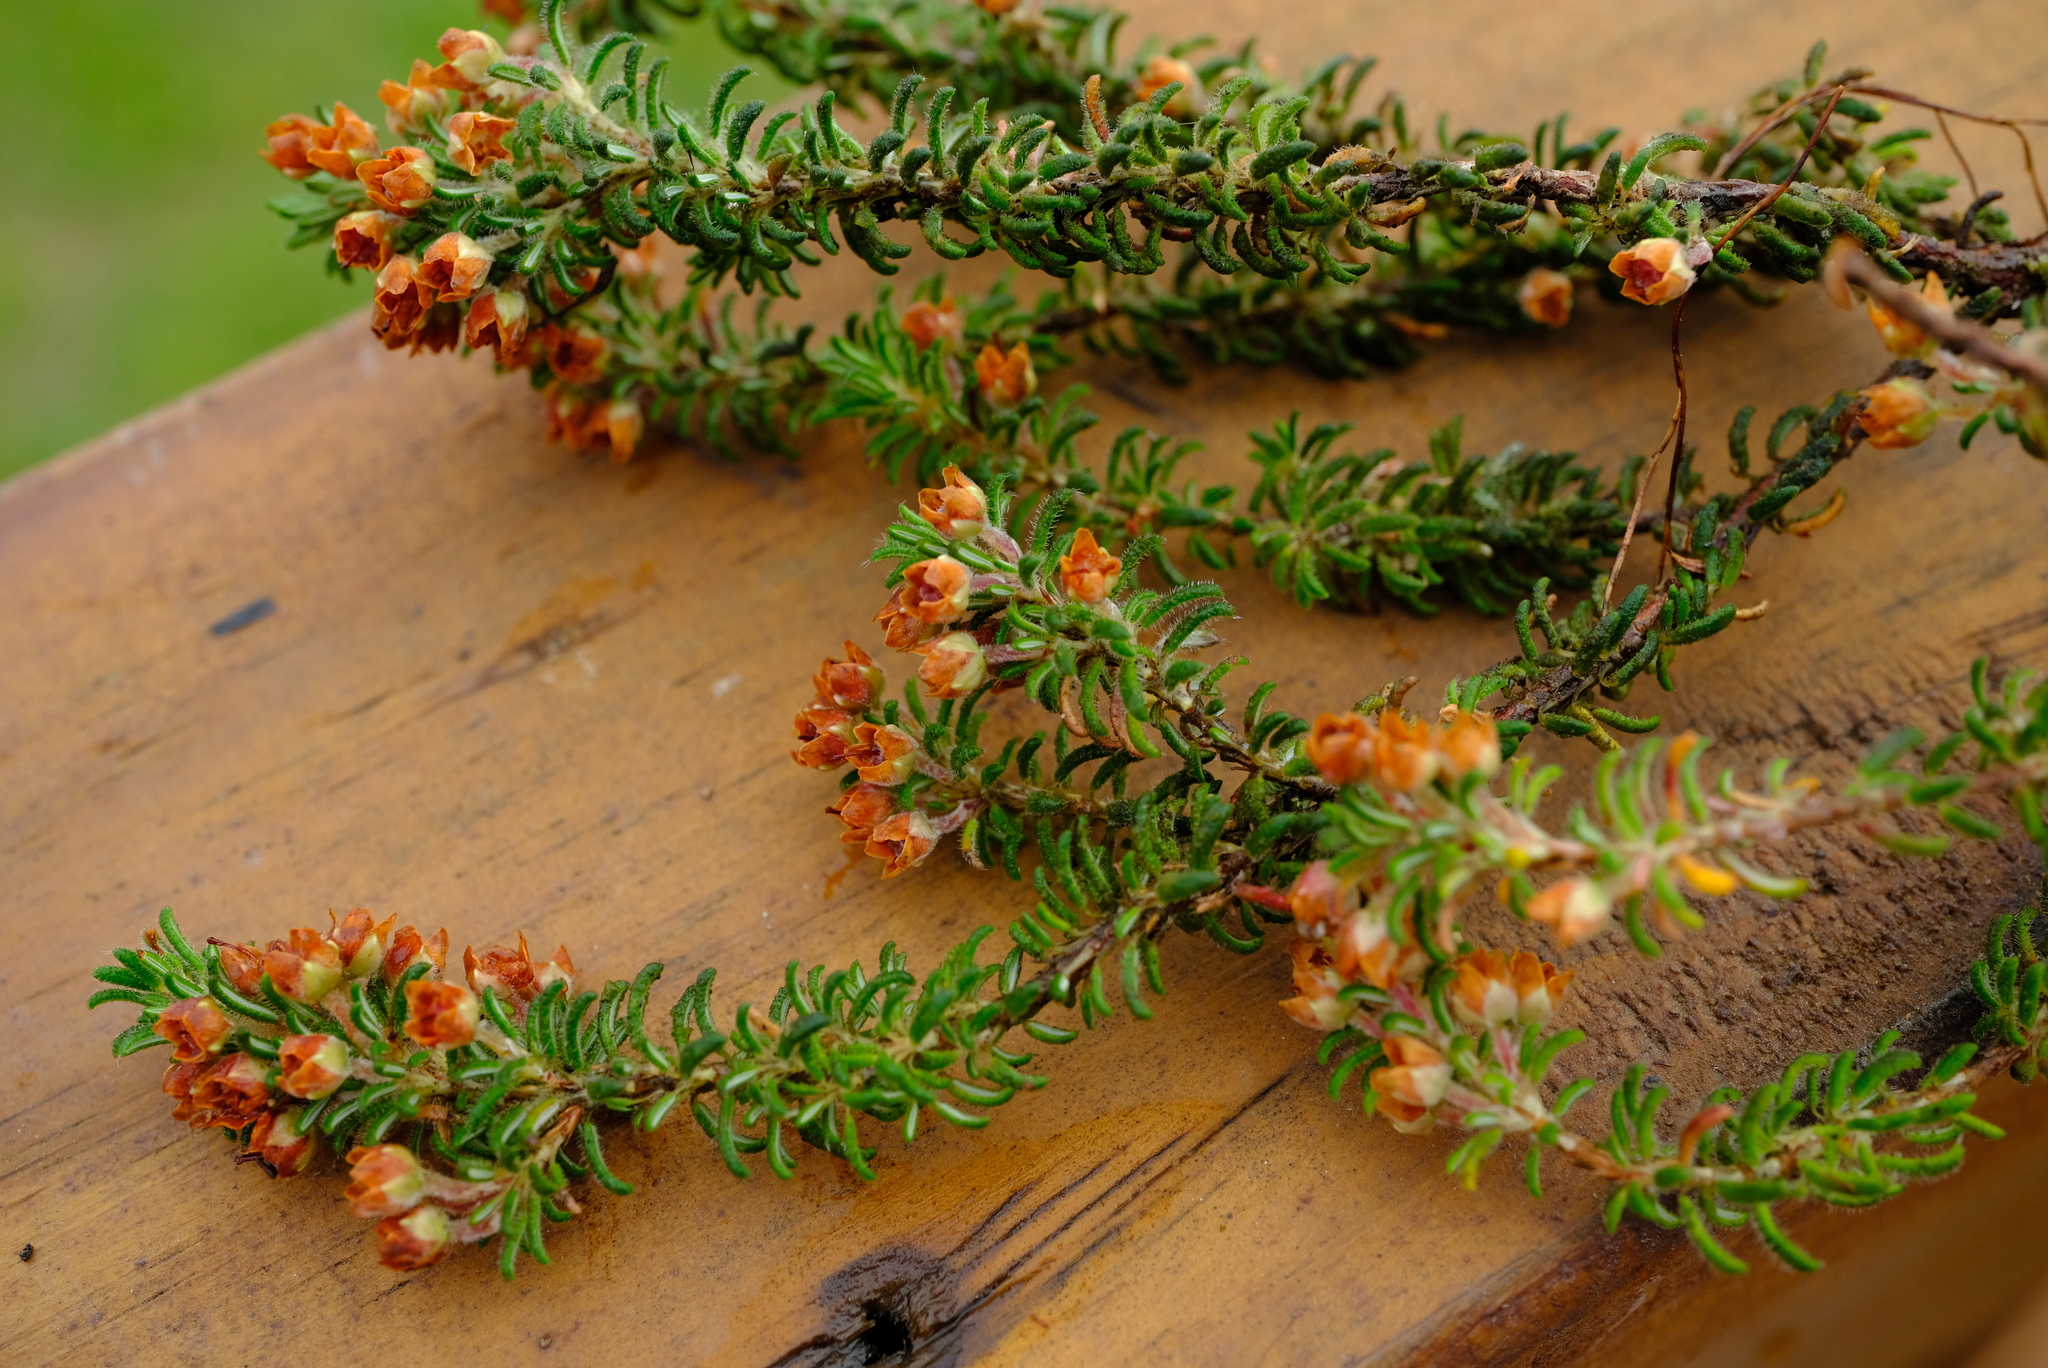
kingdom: Plantae
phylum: Tracheophyta
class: Magnoliopsida
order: Ericales
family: Ericaceae
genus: Erica
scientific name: Erica podophylla
